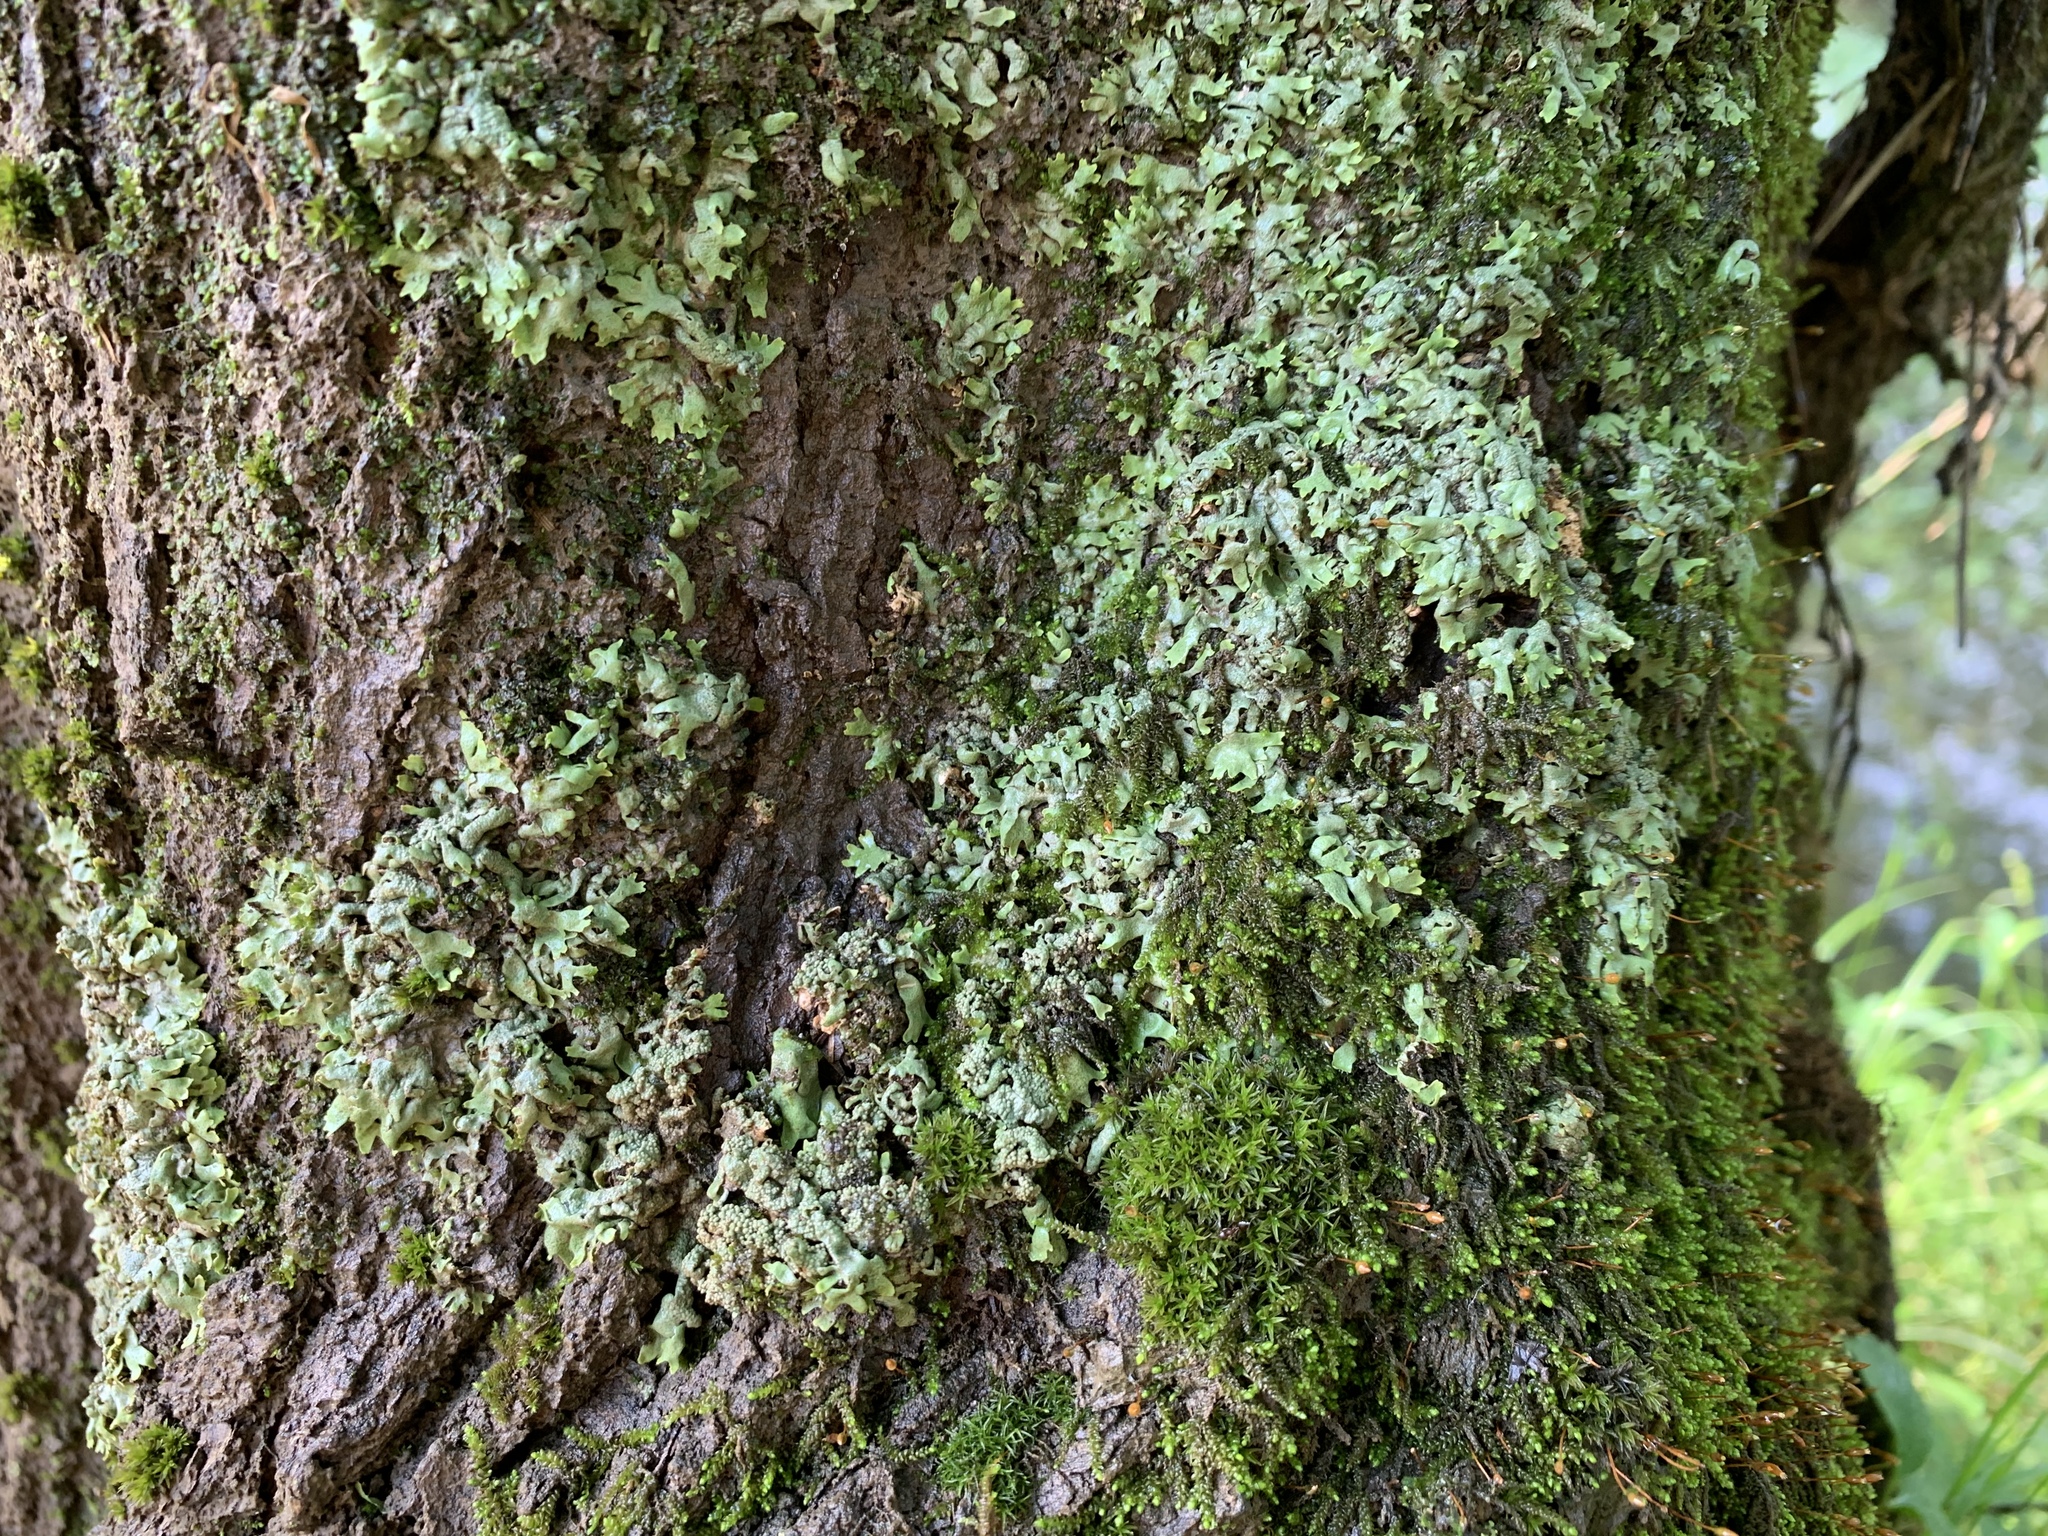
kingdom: Fungi
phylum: Ascomycota
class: Lecanoromycetes
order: Caliciales
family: Physciaceae
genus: Physcia
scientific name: Physcia leana
